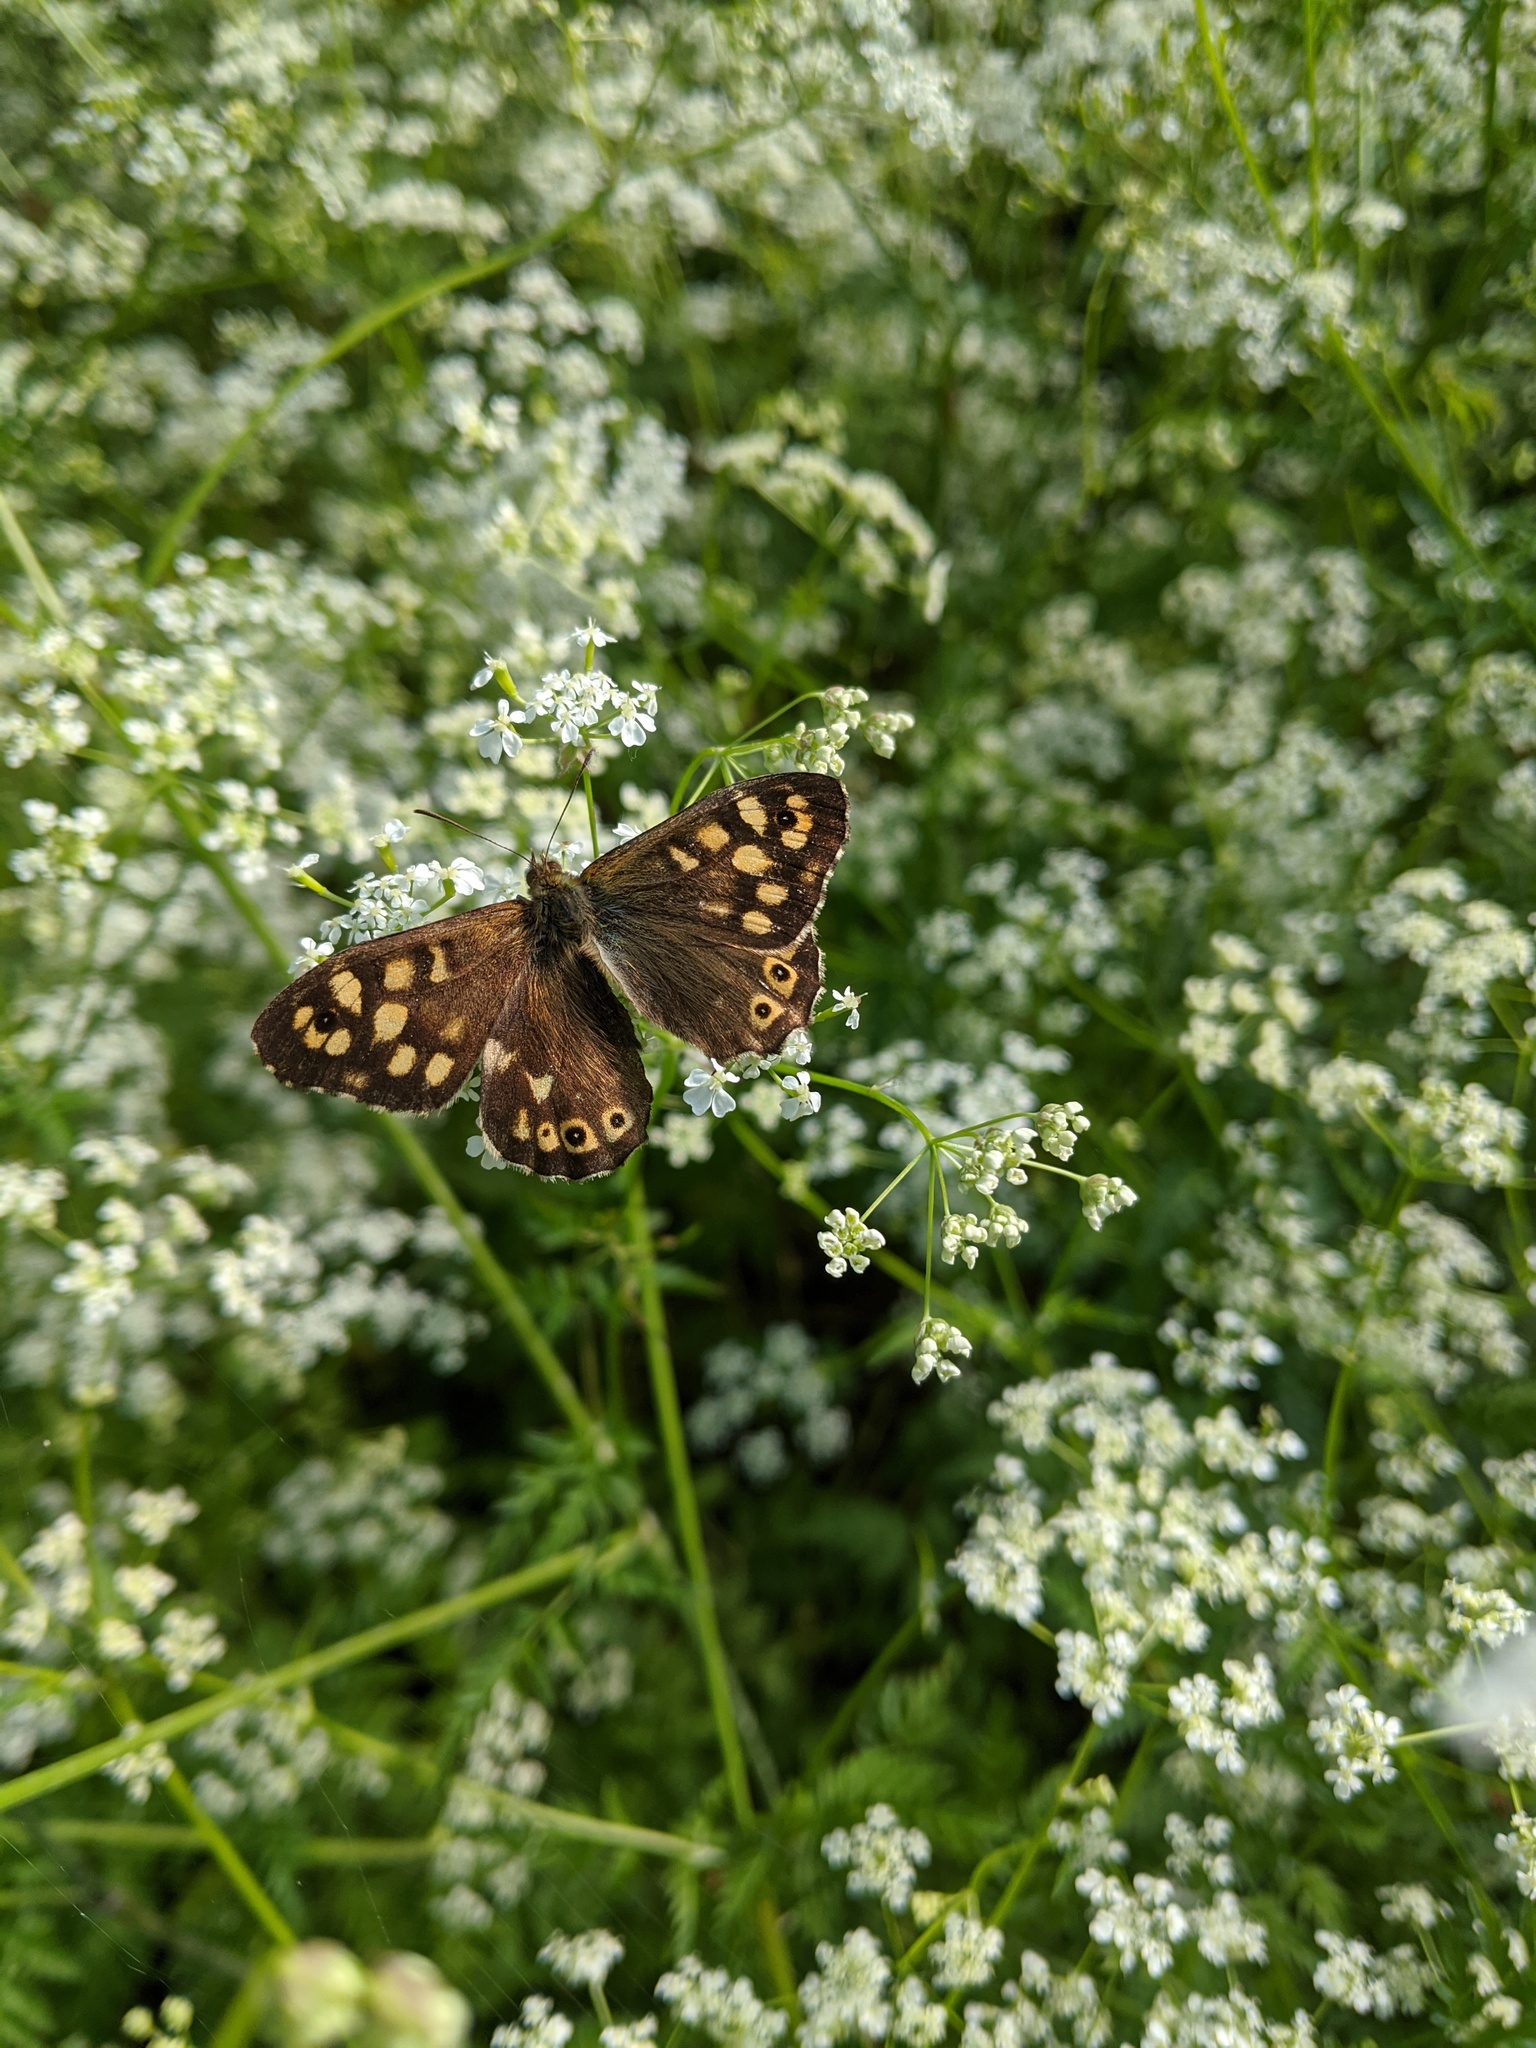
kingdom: Animalia
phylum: Arthropoda
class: Insecta
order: Lepidoptera
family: Nymphalidae
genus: Pararge
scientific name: Pararge aegeria
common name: Speckled wood
